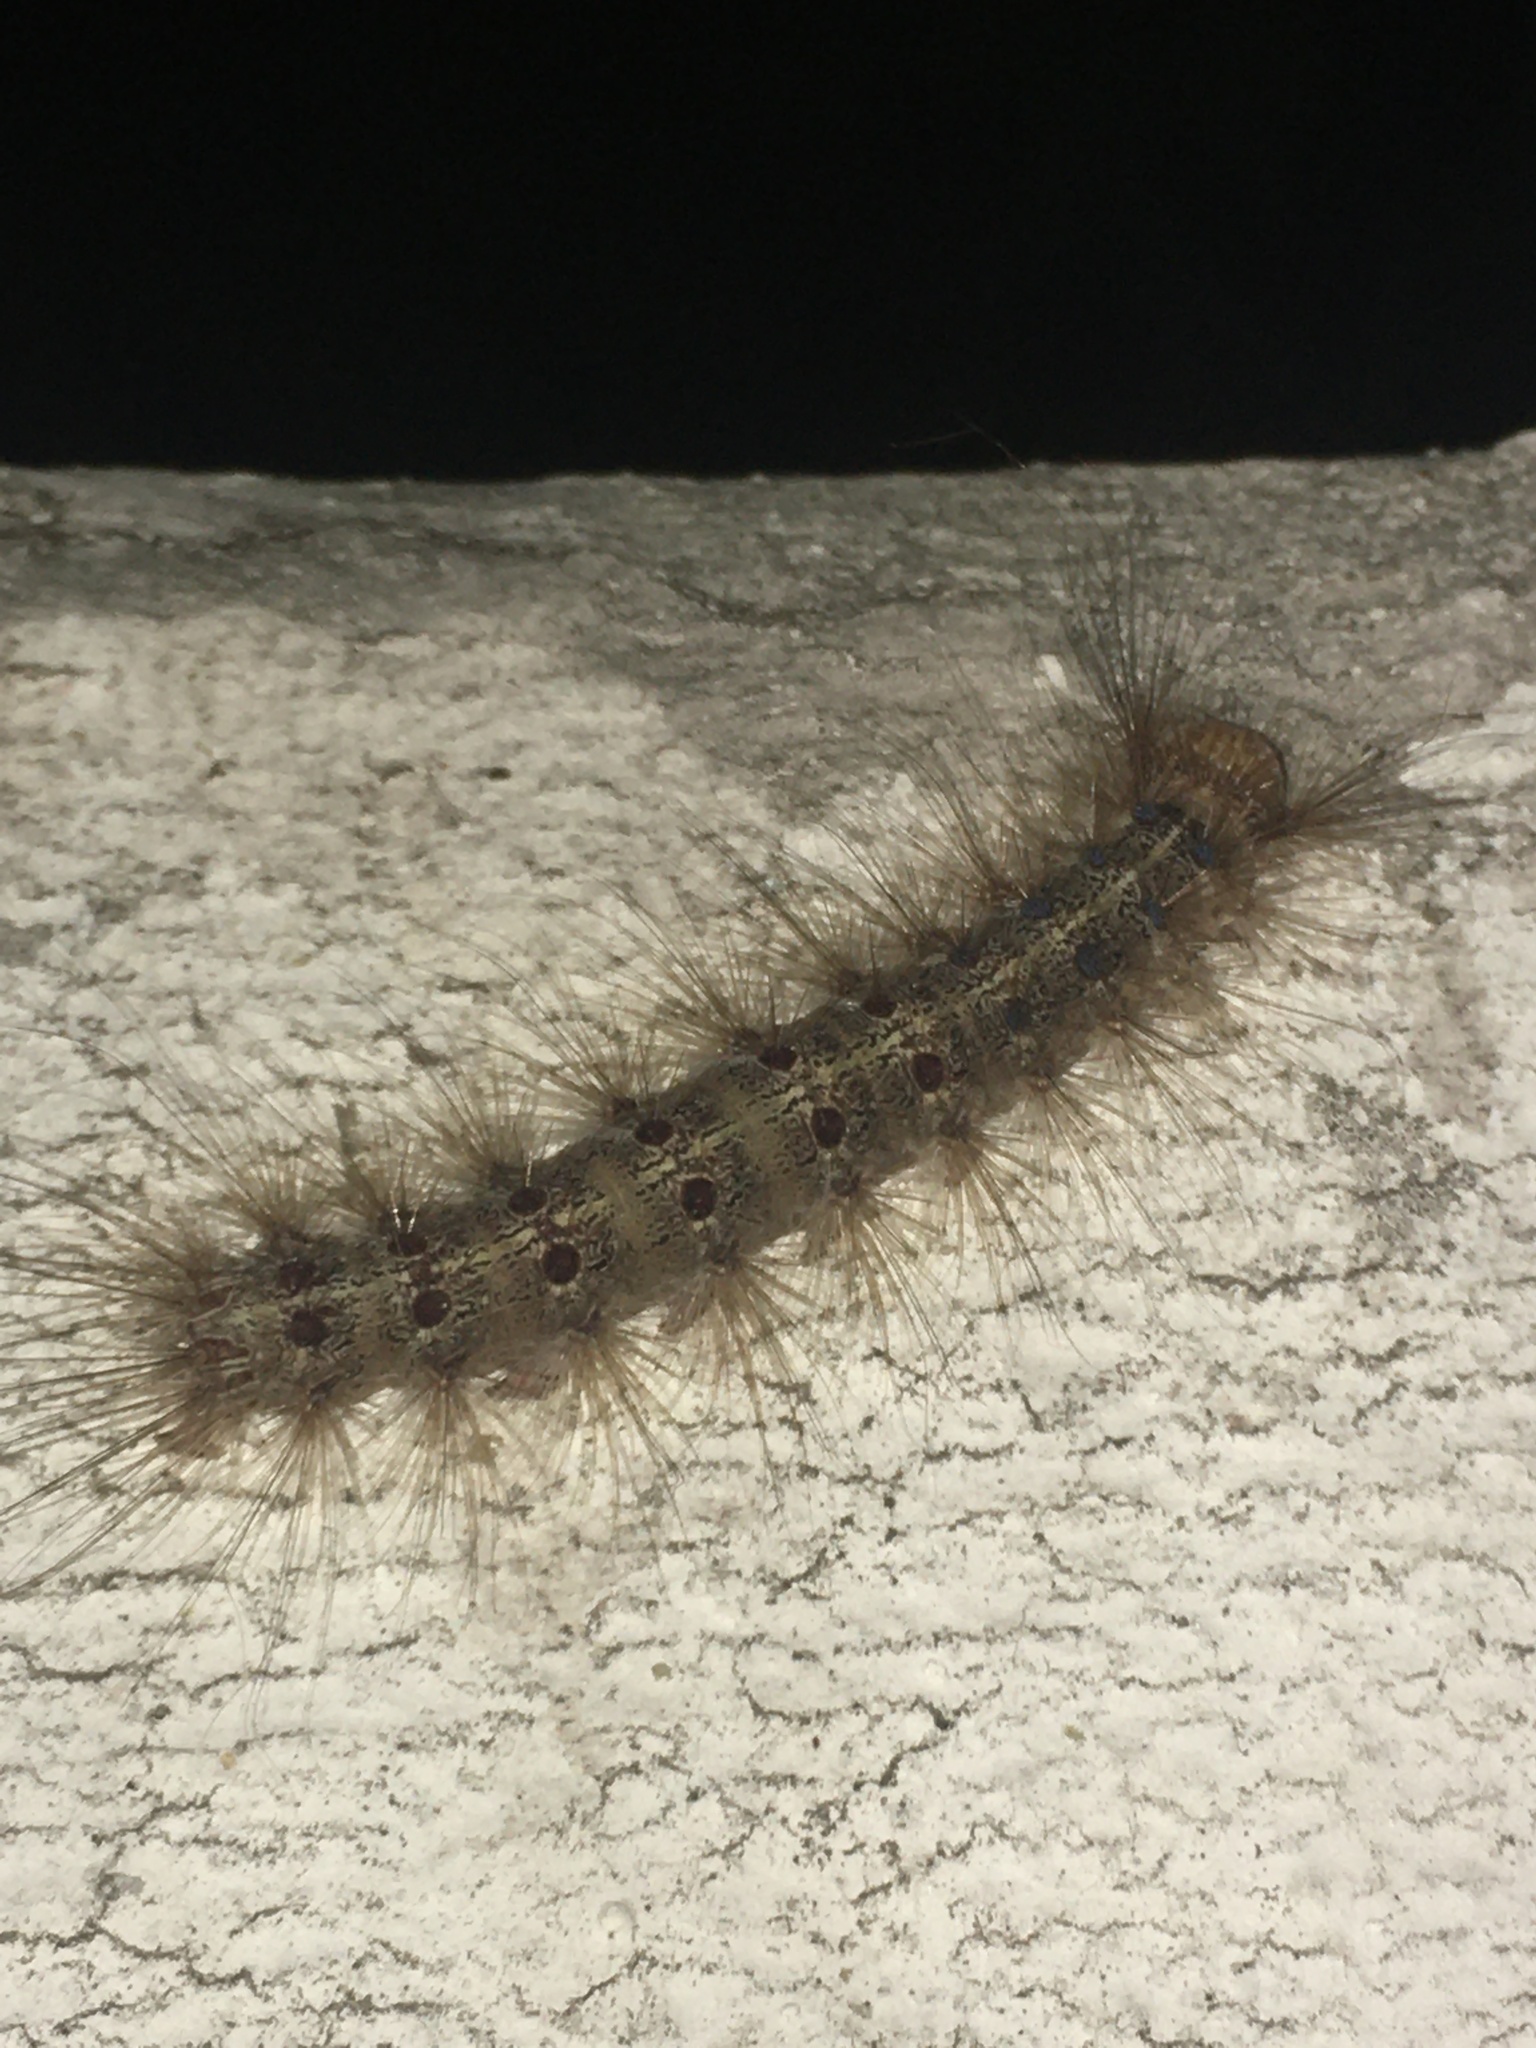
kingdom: Animalia
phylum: Arthropoda
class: Insecta
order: Lepidoptera
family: Erebidae
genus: Lymantria
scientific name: Lymantria dispar
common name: Gypsy moth
